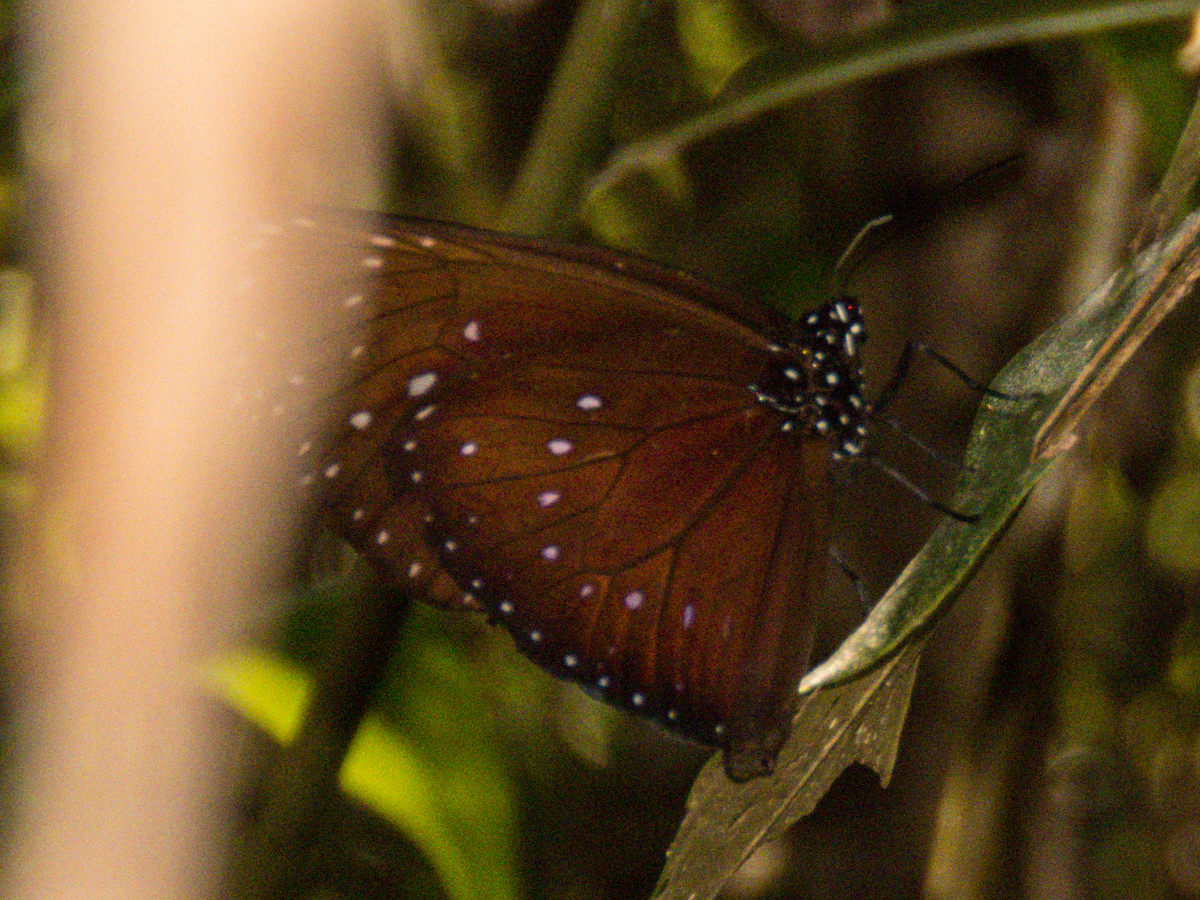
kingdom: Animalia
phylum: Arthropoda
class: Insecta
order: Lepidoptera
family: Nymphalidae
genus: Euploea
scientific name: Euploea phaenareta
